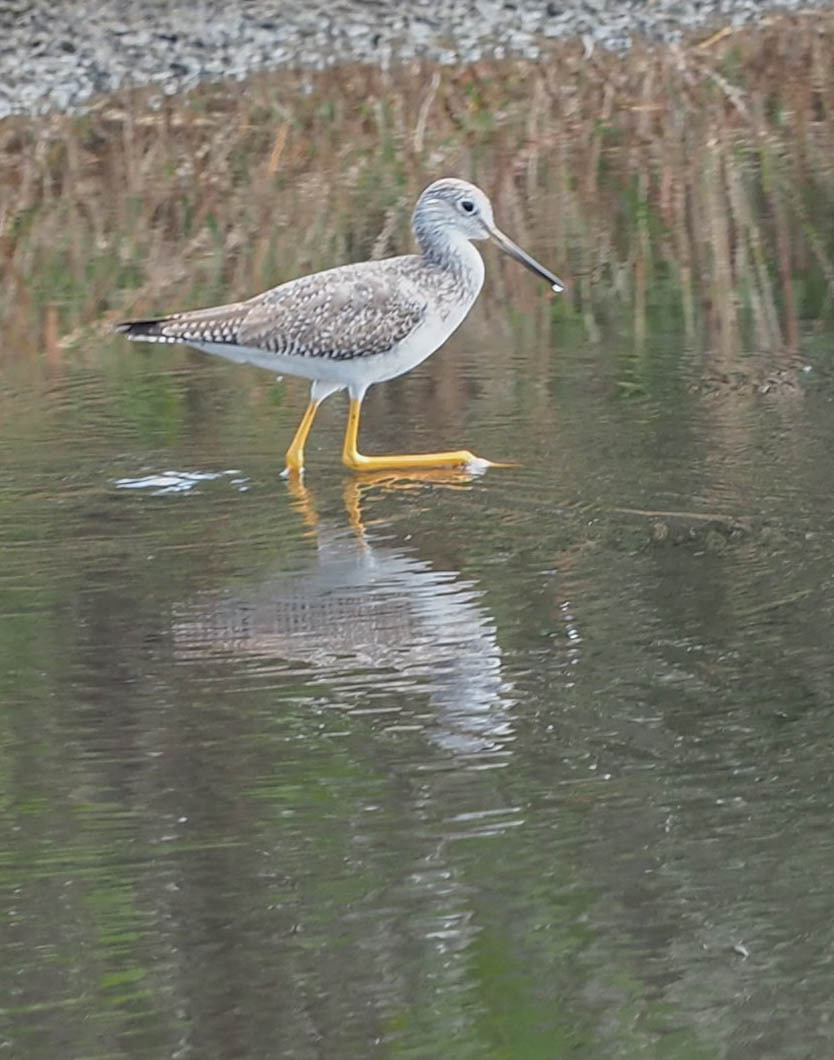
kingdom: Animalia
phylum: Chordata
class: Aves
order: Charadriiformes
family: Scolopacidae
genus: Tringa
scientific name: Tringa melanoleuca
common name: Greater yellowlegs
